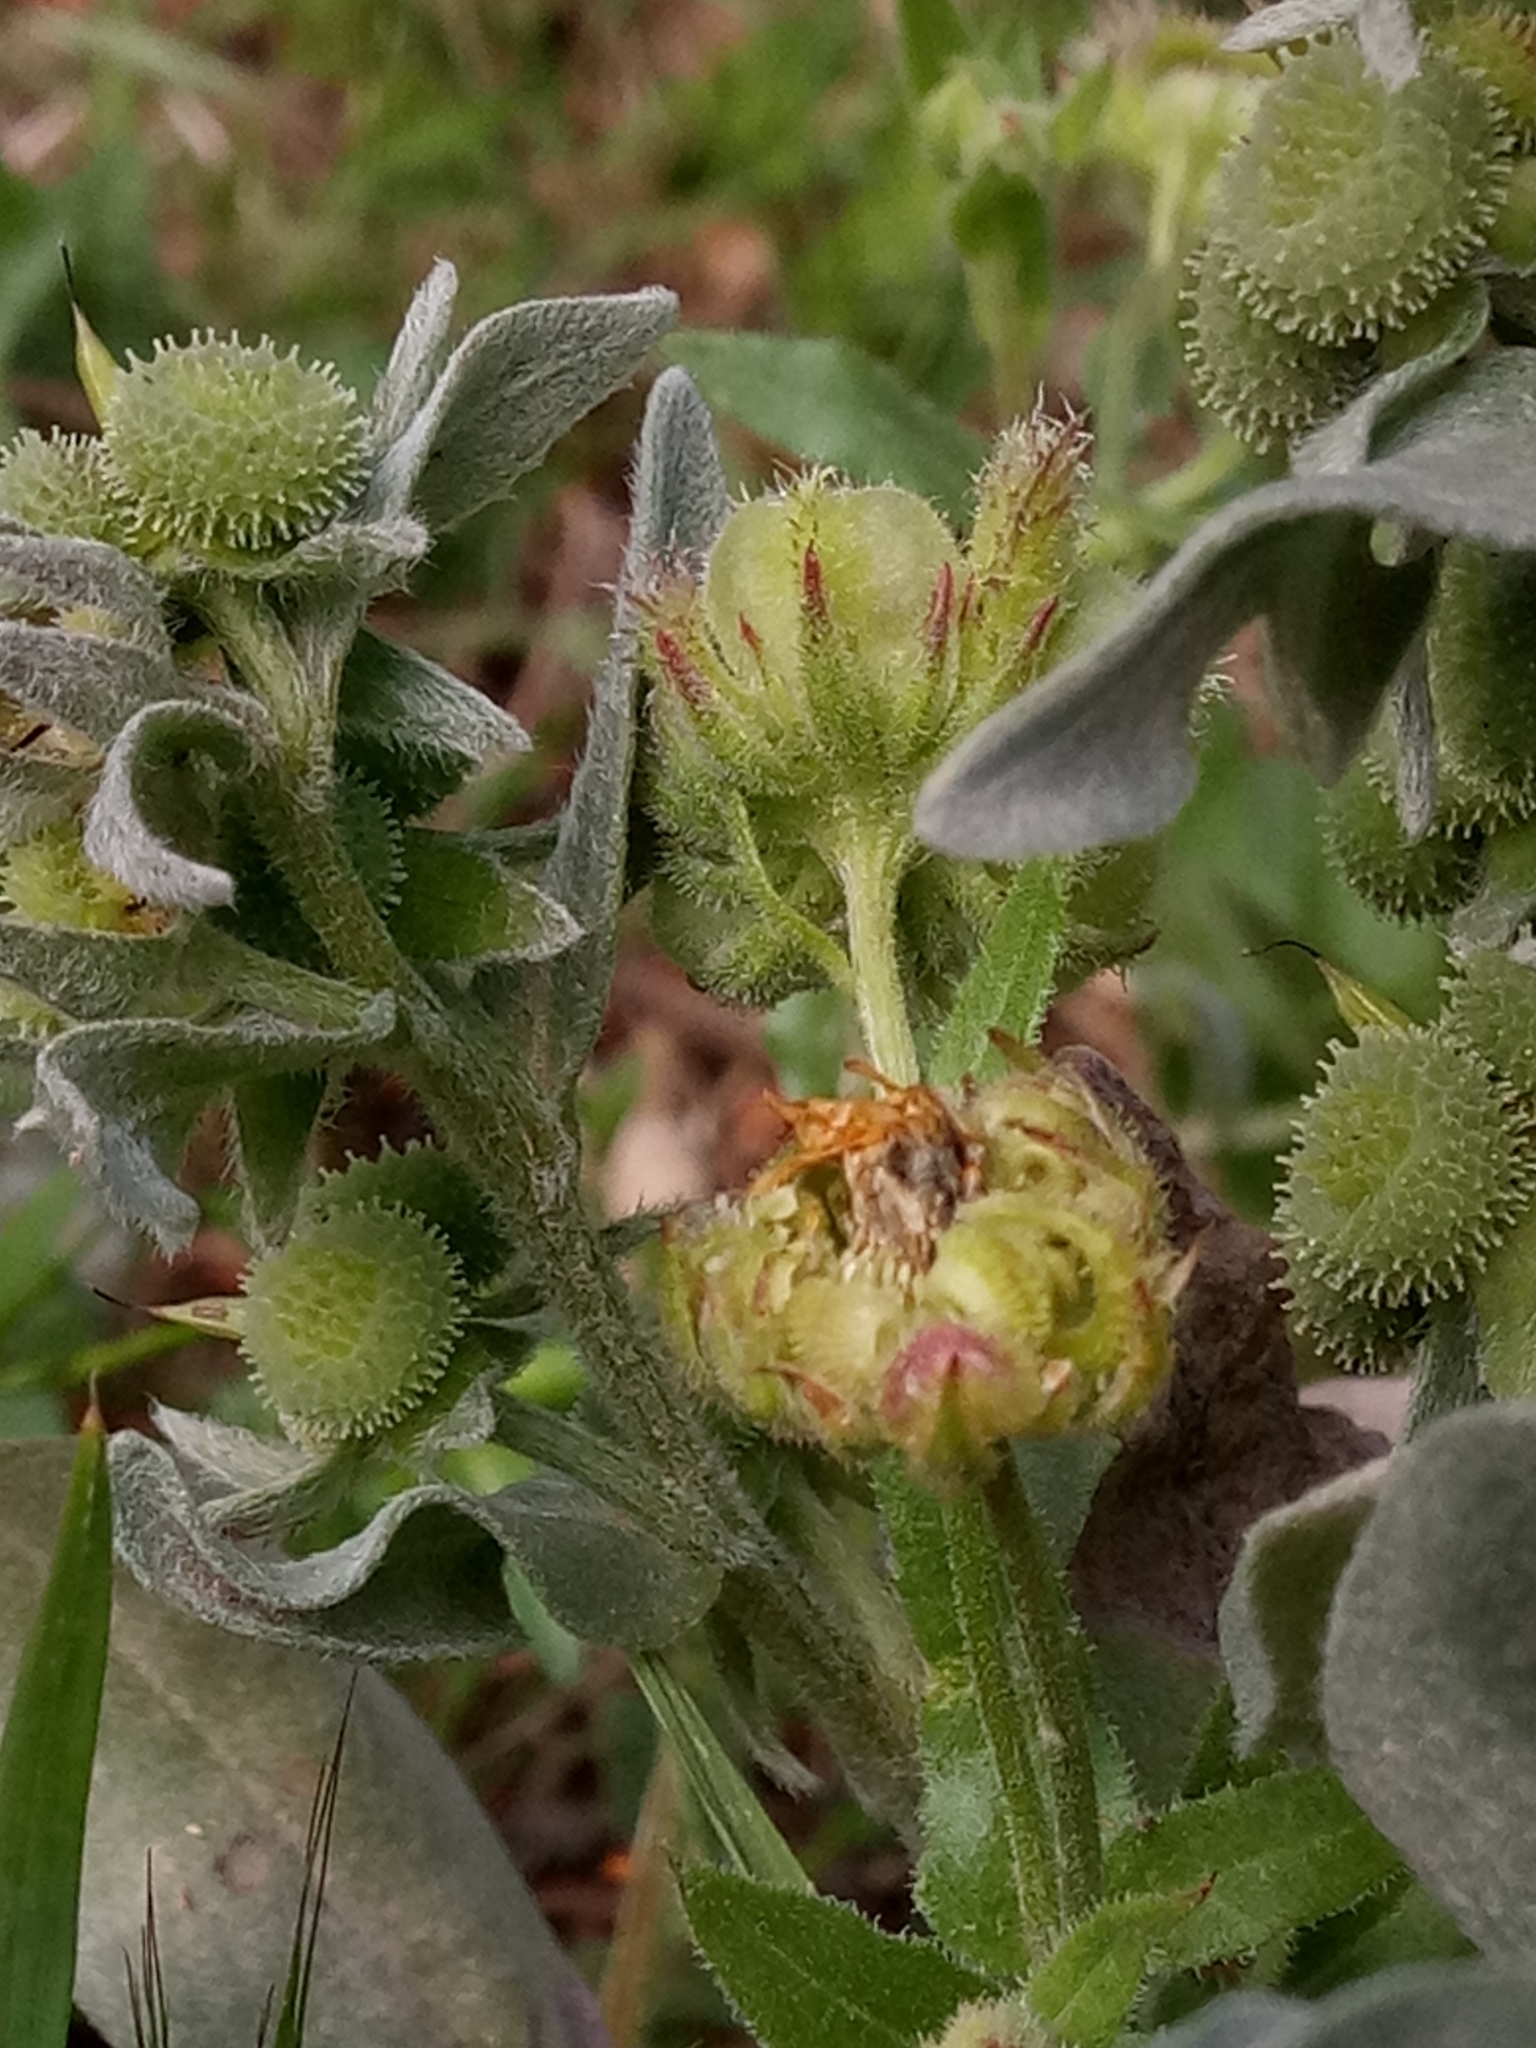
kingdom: Plantae
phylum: Tracheophyta
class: Magnoliopsida
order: Boraginales
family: Boraginaceae
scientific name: Boraginaceae
